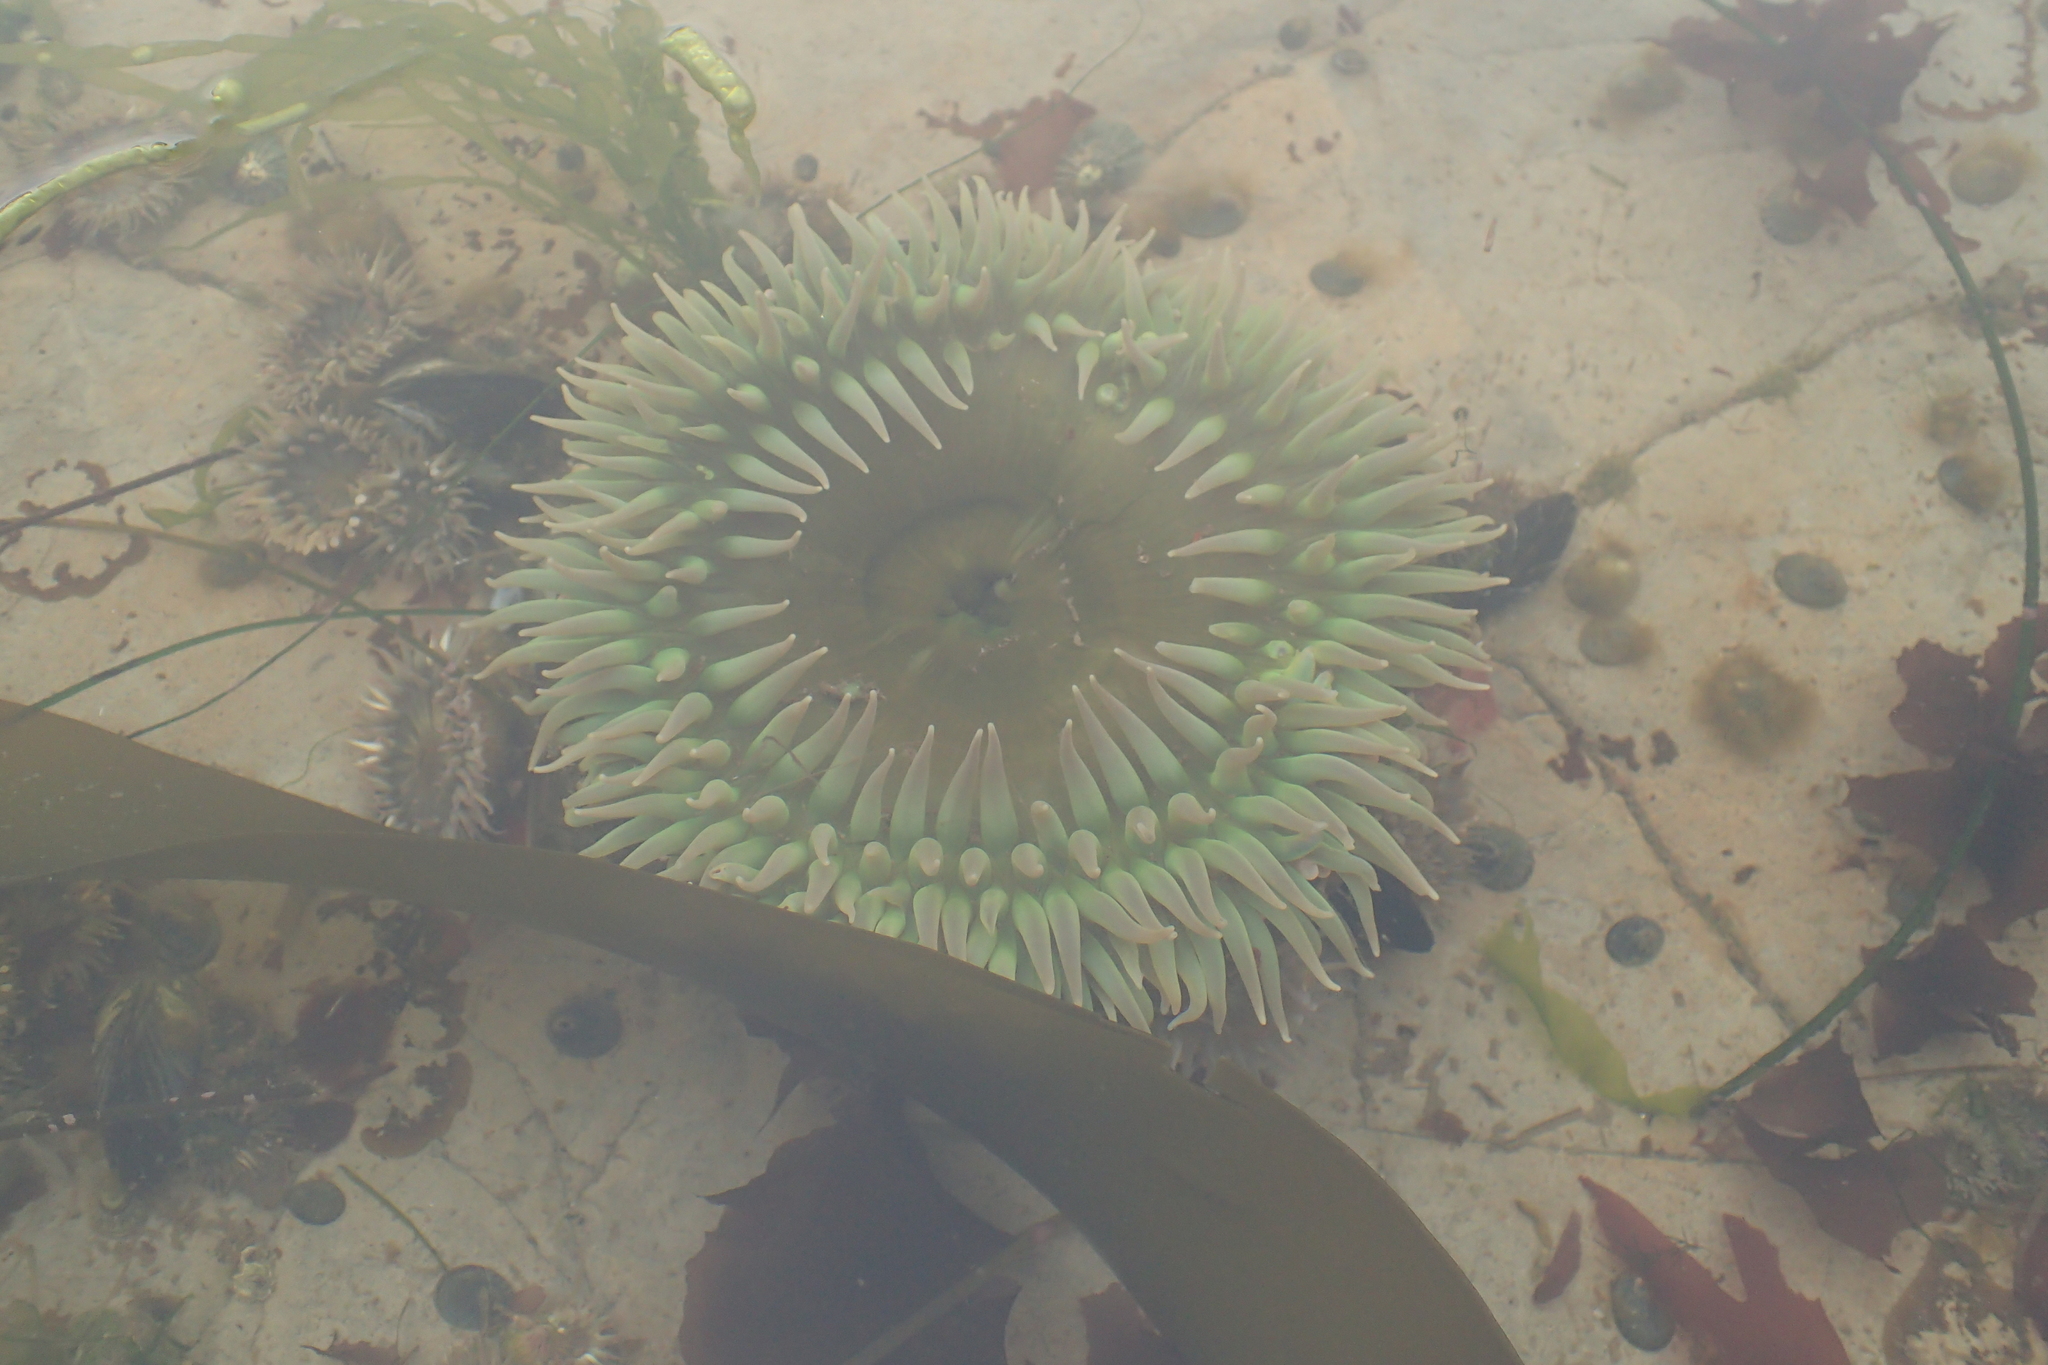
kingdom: Animalia
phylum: Cnidaria
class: Anthozoa
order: Actiniaria
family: Actiniidae
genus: Anthopleura
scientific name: Anthopleura xanthogrammica
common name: Giant green anemone
